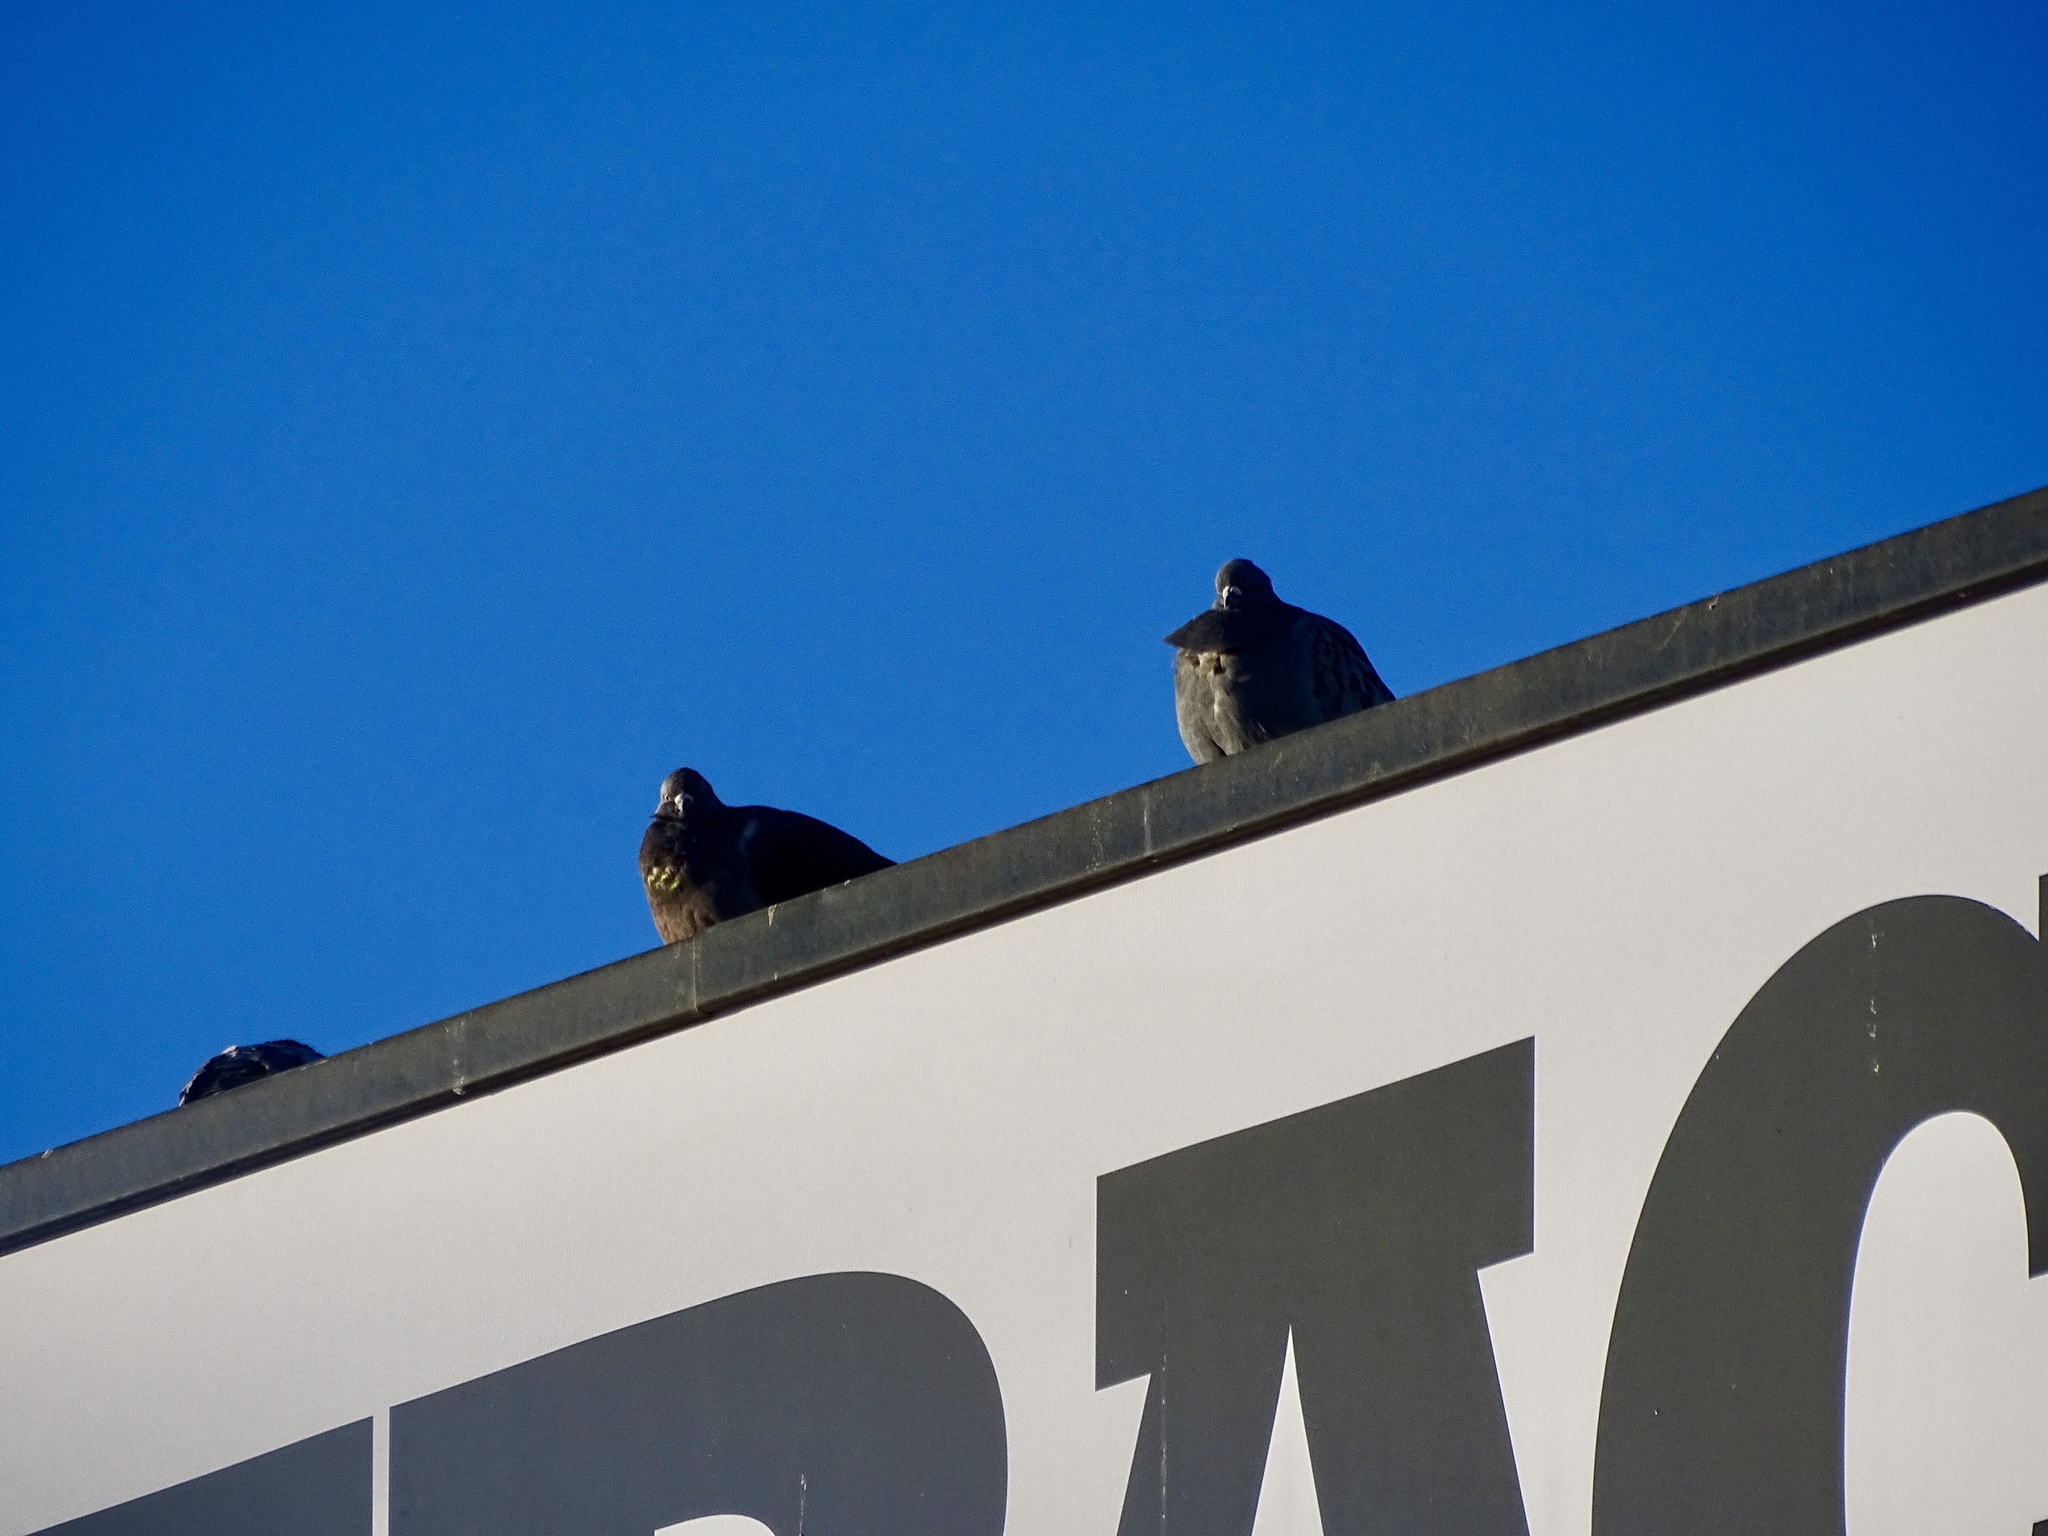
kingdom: Animalia
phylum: Chordata
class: Aves
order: Columbiformes
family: Columbidae
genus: Columba
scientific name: Columba livia
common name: Rock pigeon
